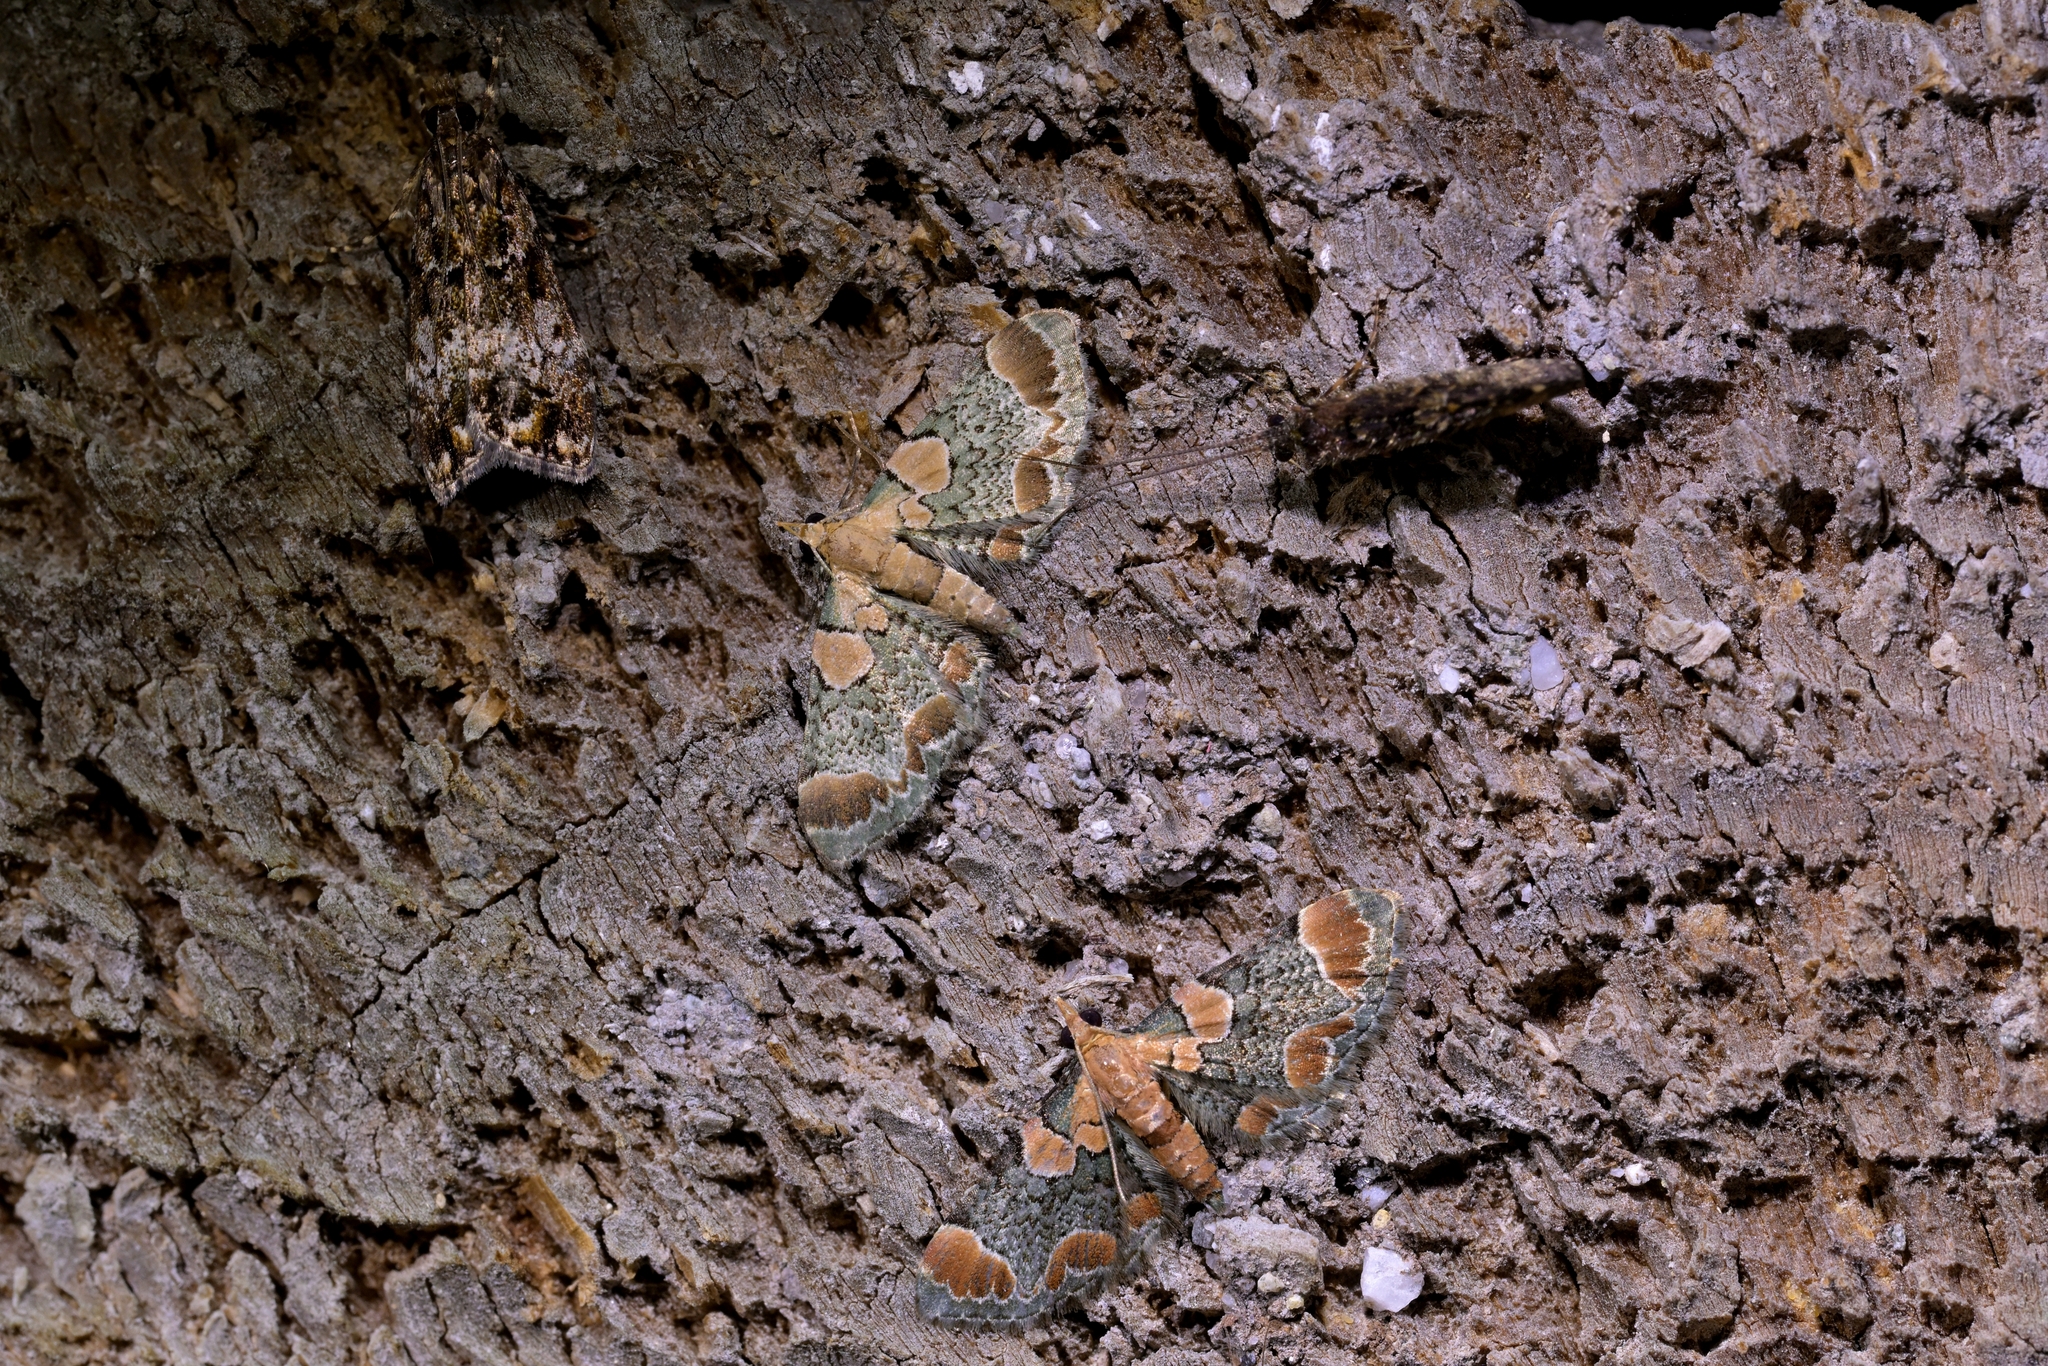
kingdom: Animalia
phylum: Arthropoda
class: Insecta
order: Lepidoptera
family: Geometridae
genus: Chloroclystis
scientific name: Chloroclystis
